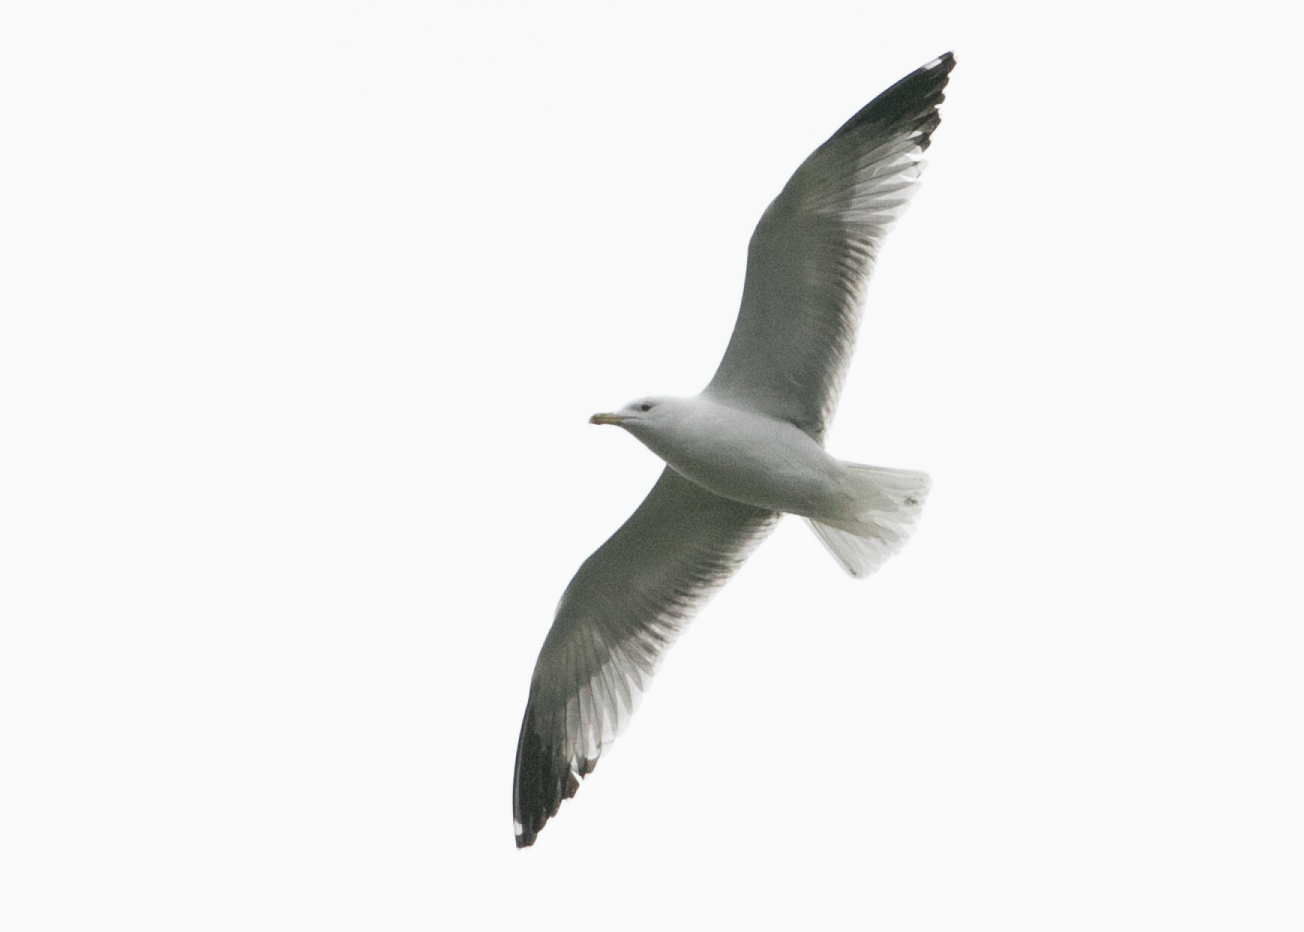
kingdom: Animalia
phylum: Chordata
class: Aves
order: Charadriiformes
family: Laridae
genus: Larus
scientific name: Larus michahellis
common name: Yellow-legged gull
